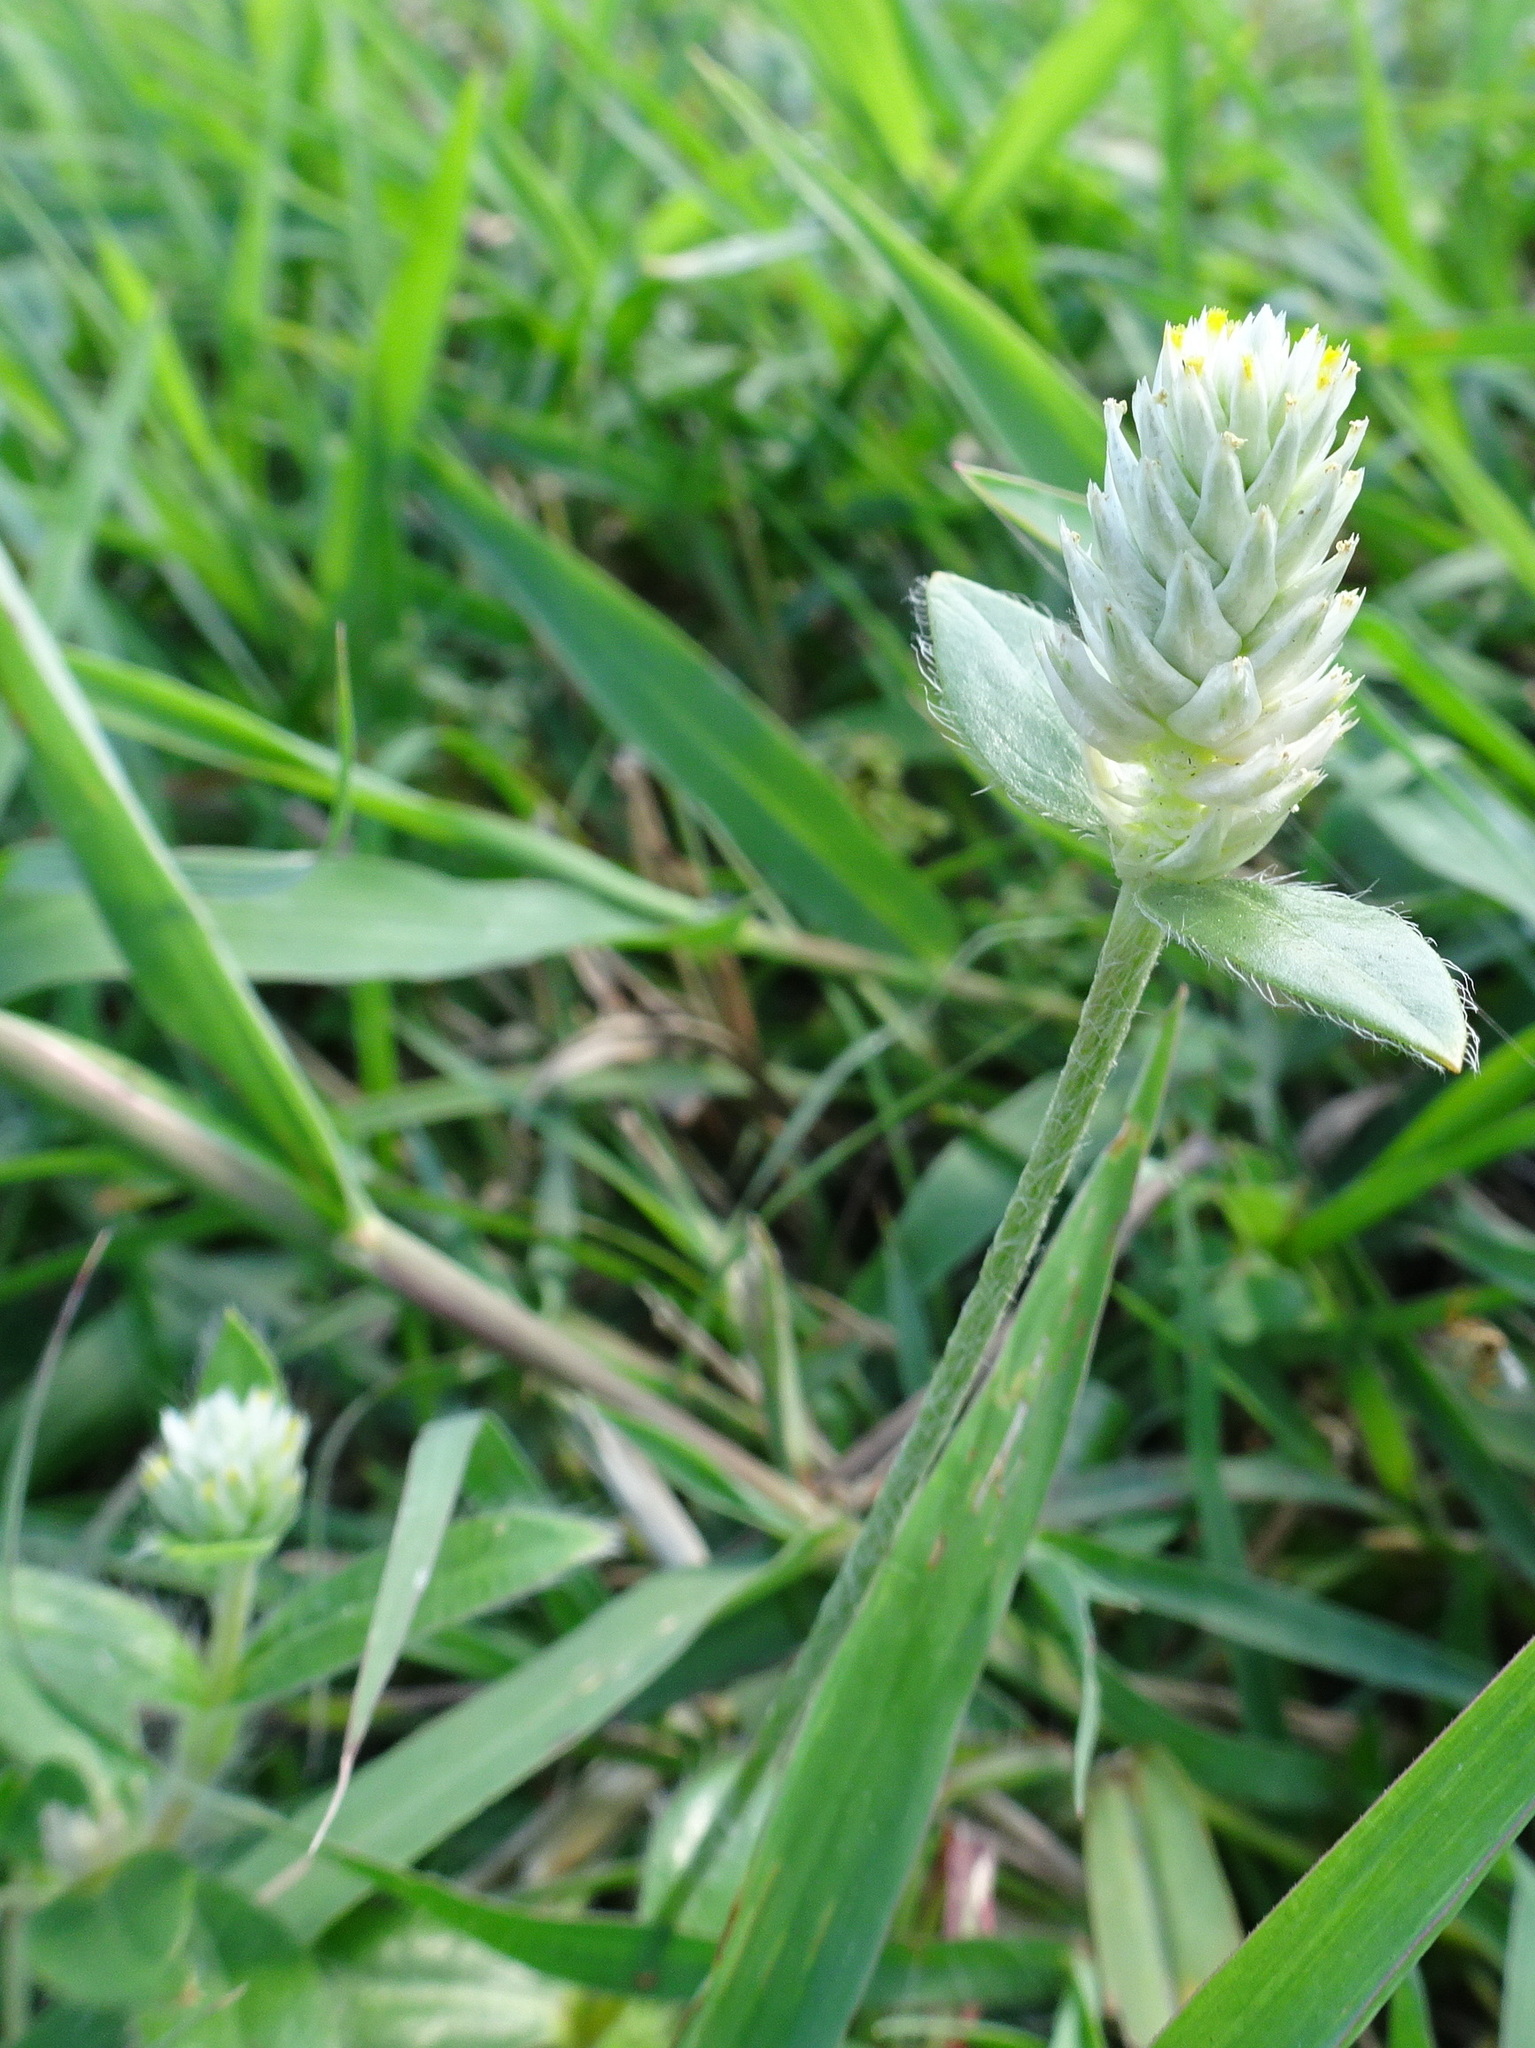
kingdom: Plantae
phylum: Tracheophyta
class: Magnoliopsida
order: Caryophyllales
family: Amaranthaceae
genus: Gomphrena
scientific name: Gomphrena serrata
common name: Arrasa con todo
